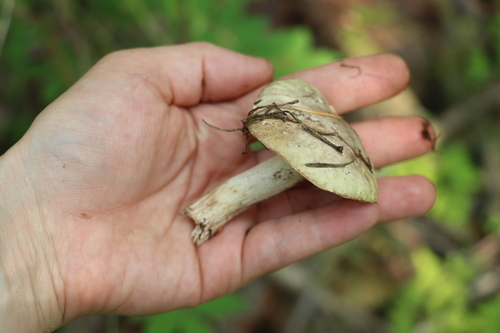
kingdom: Fungi
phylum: Basidiomycota
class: Agaricomycetes
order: Boletales
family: Suillaceae
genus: Suillus
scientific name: Suillus placidus
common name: Slippery white bolete
